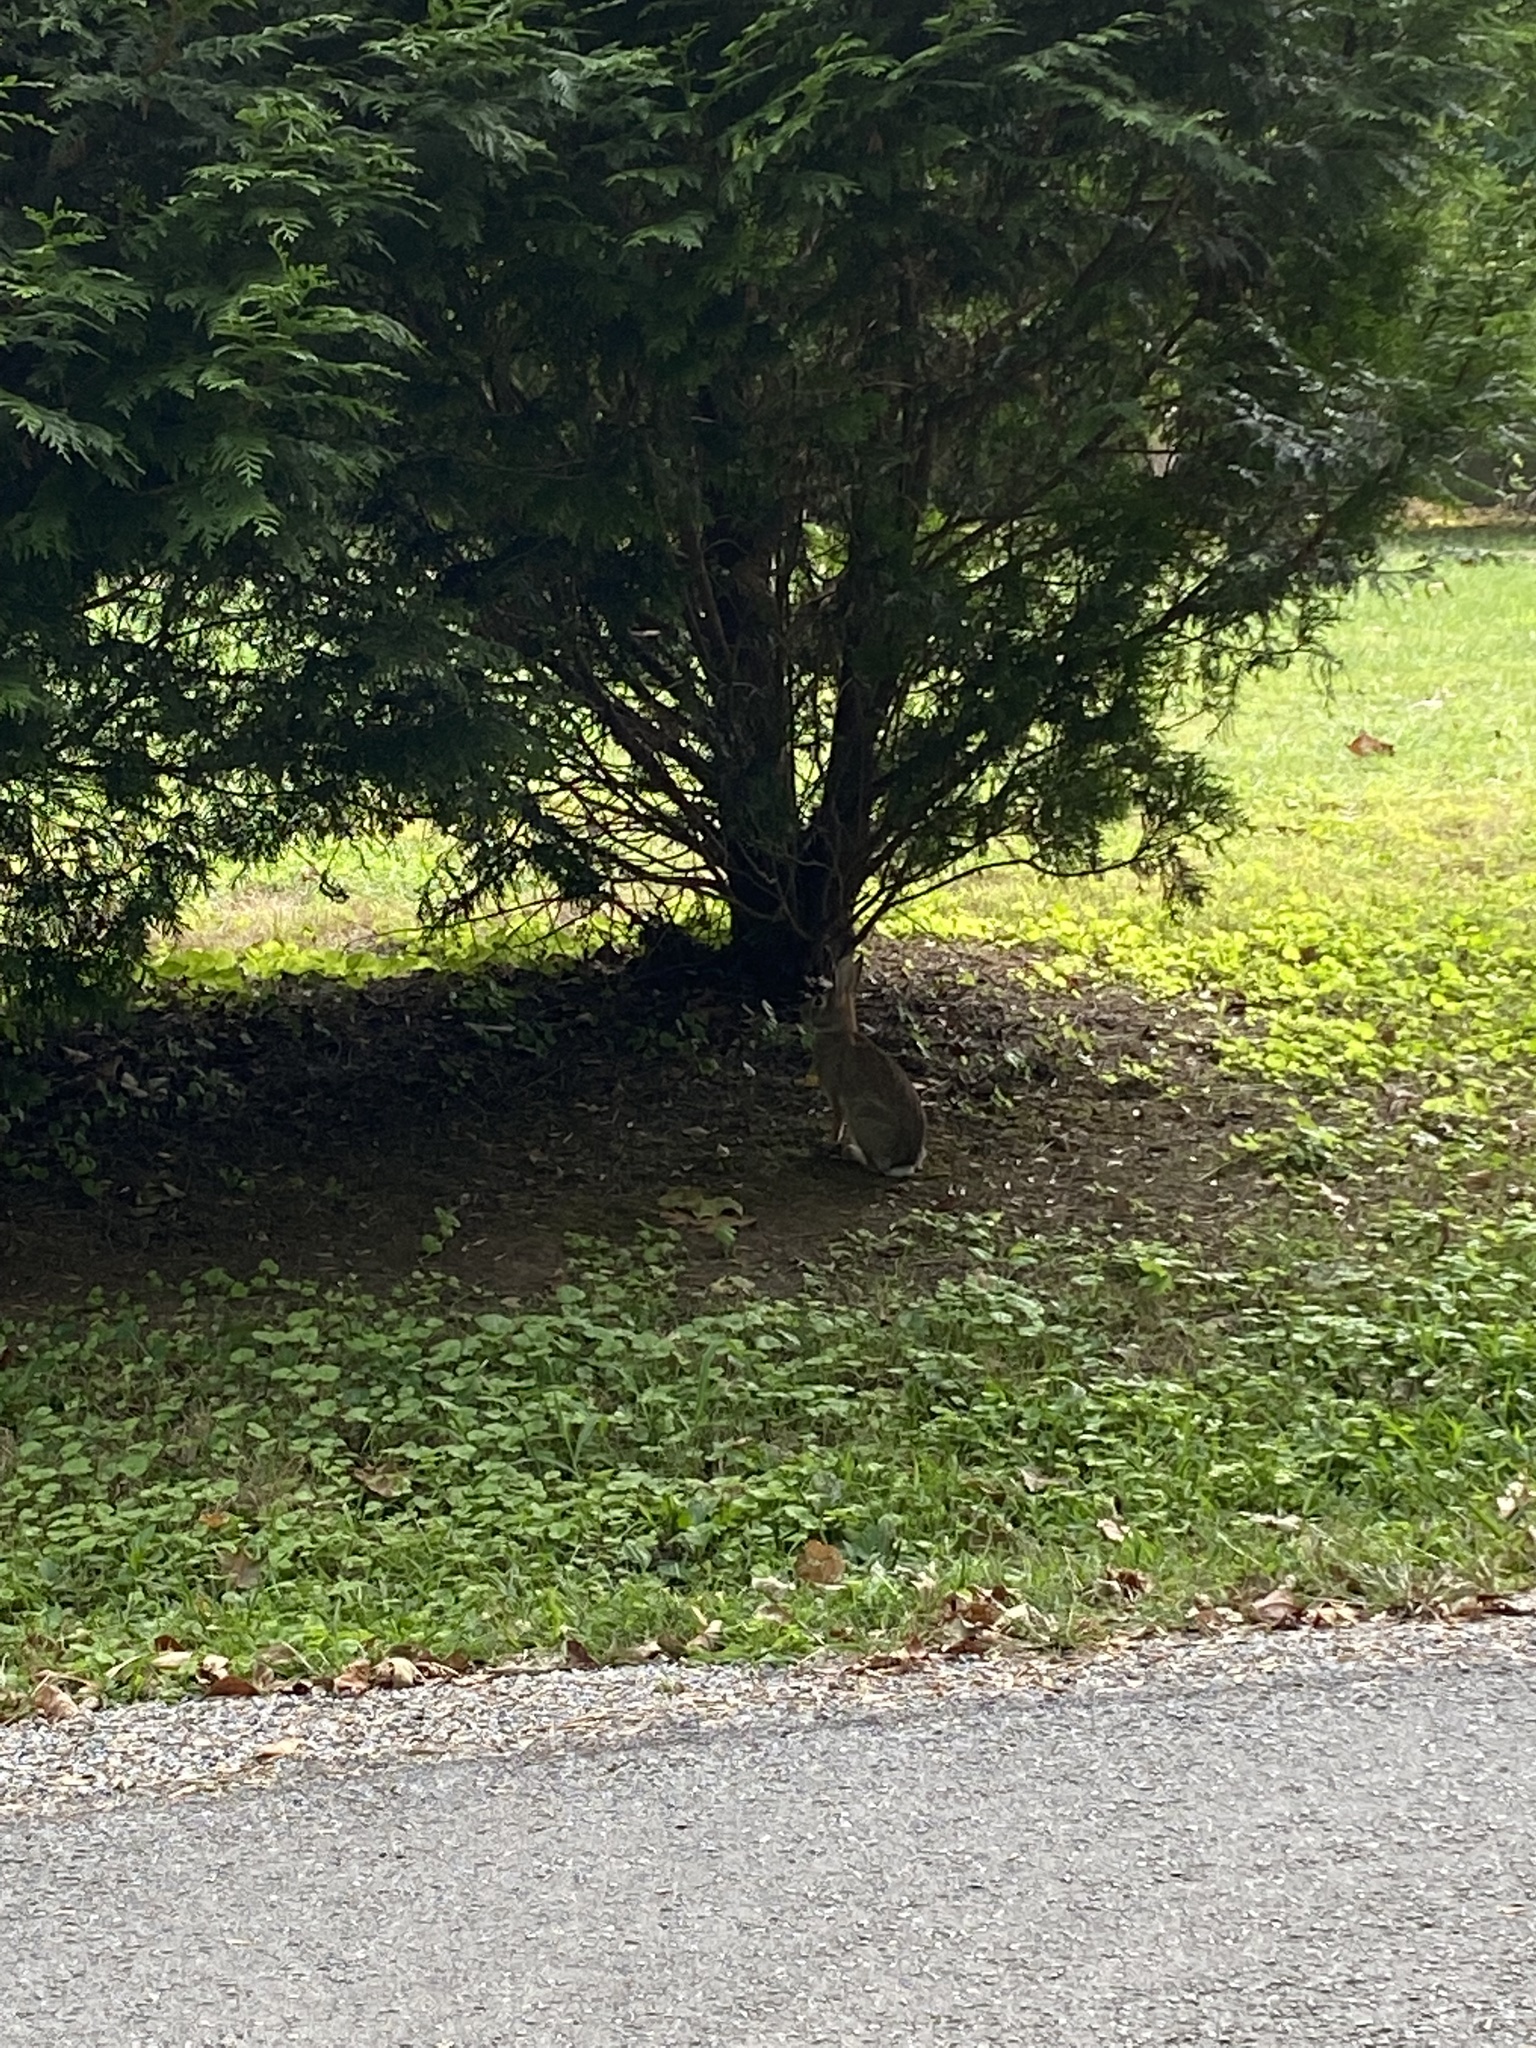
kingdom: Animalia
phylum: Chordata
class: Mammalia
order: Lagomorpha
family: Leporidae
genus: Sylvilagus
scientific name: Sylvilagus floridanus
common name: Eastern cottontail
